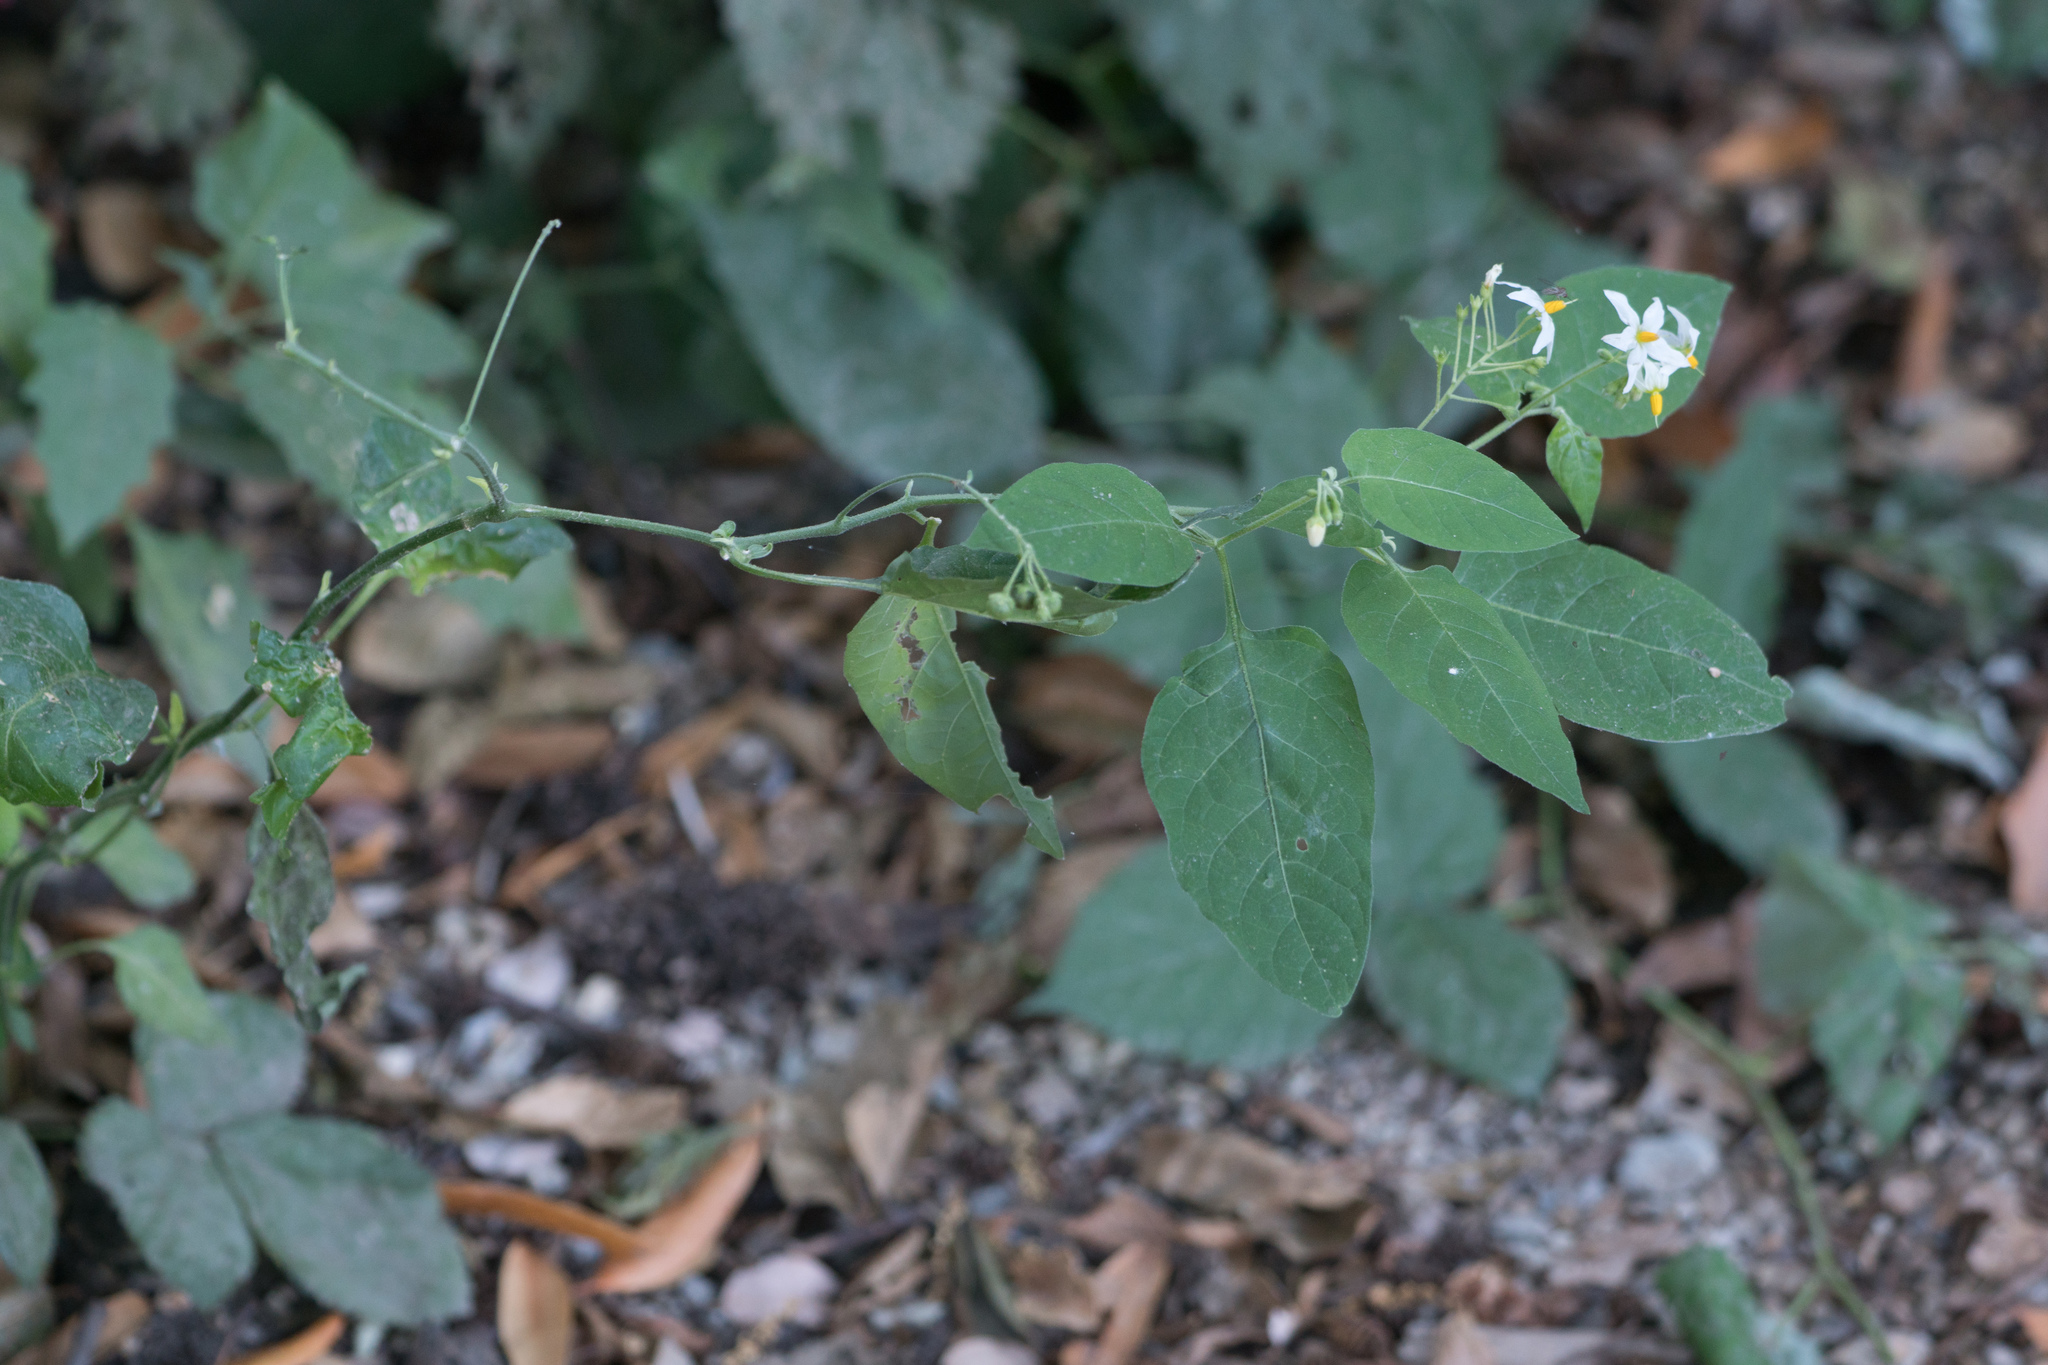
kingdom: Plantae
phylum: Tracheophyta
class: Magnoliopsida
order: Solanales
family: Solanaceae
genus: Solanum
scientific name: Solanum douglasii
